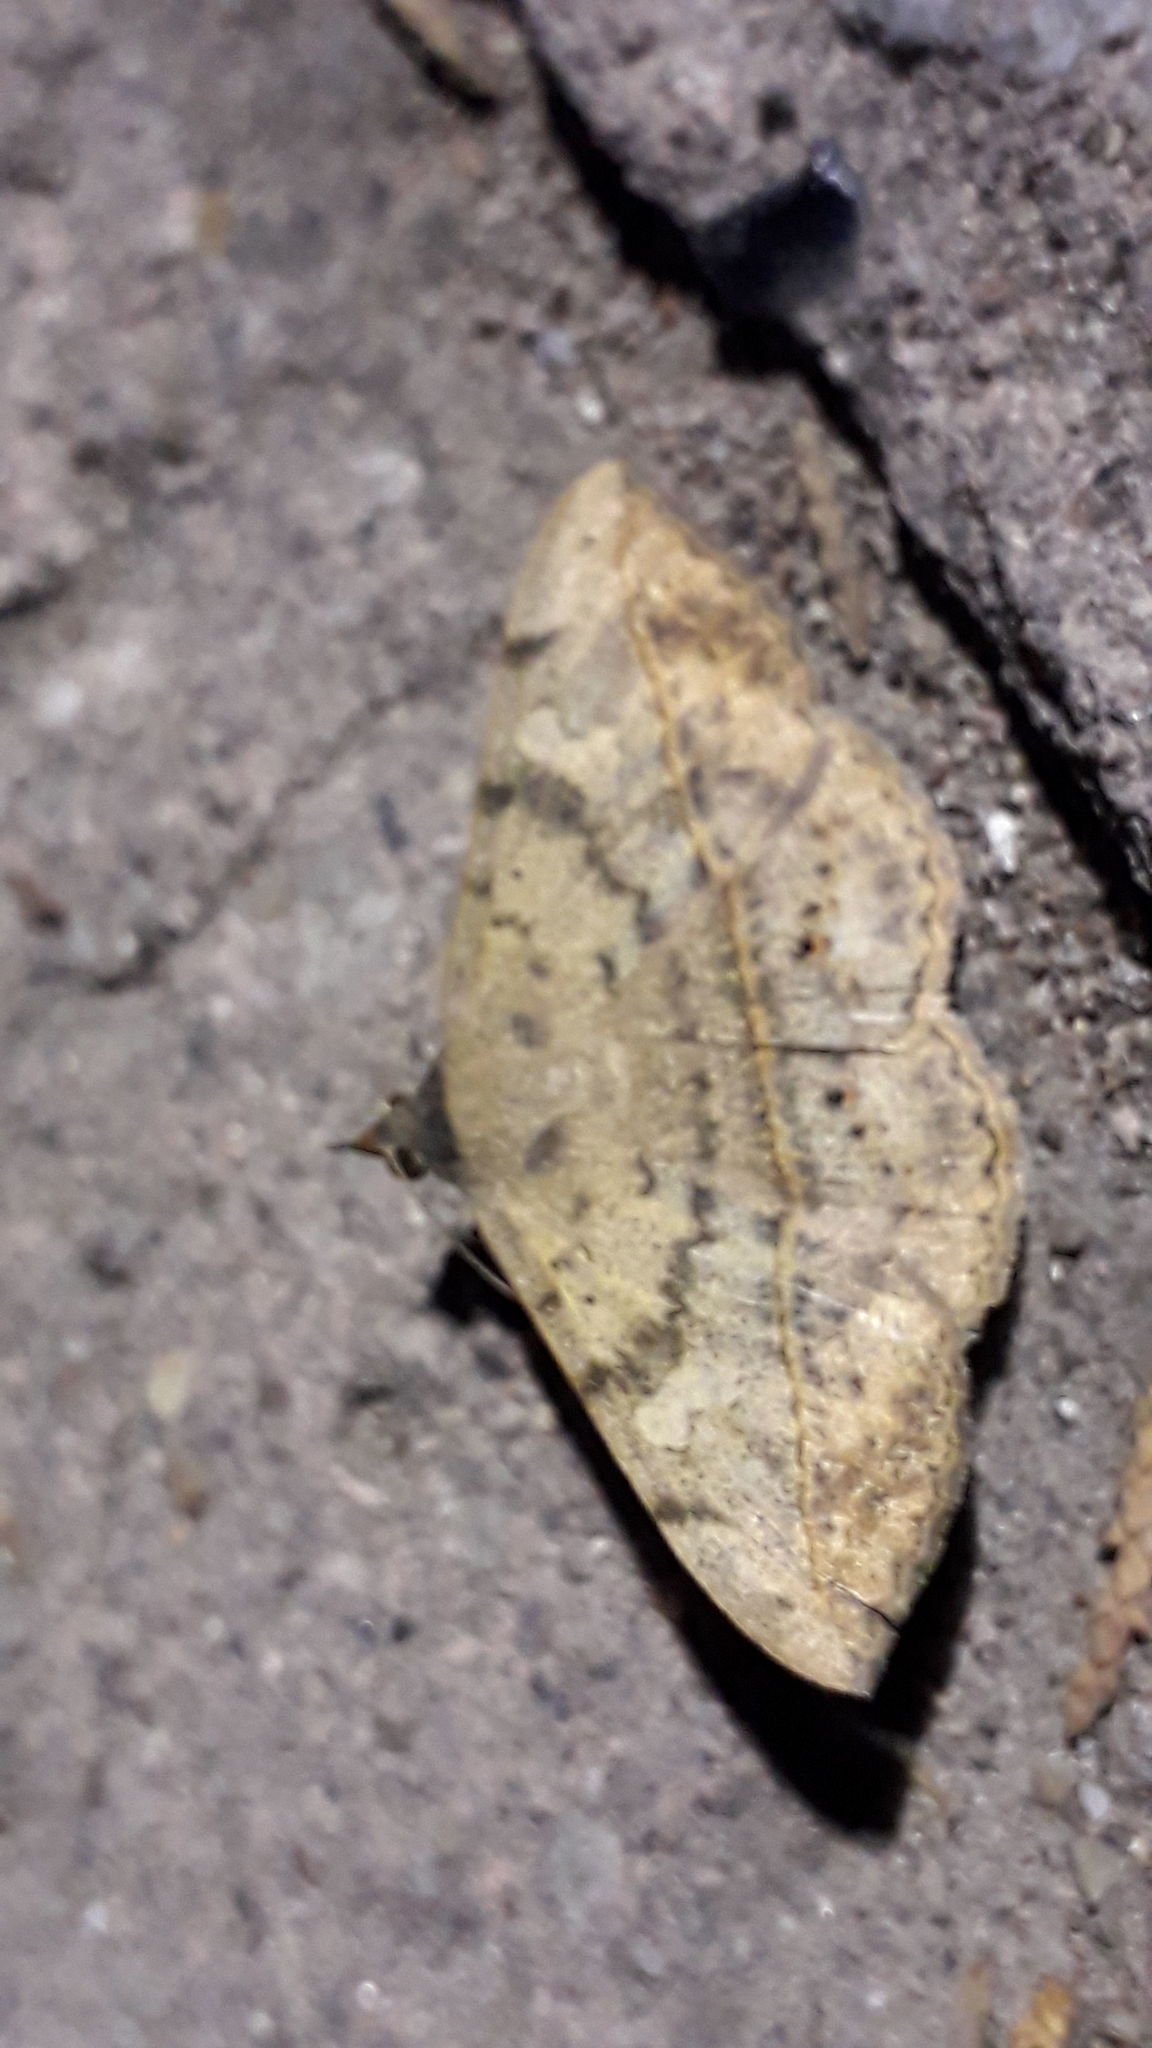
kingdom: Animalia
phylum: Arthropoda
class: Insecta
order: Lepidoptera
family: Erebidae
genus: Anticarsia
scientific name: Anticarsia gemmatalis
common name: Cutworm moth
